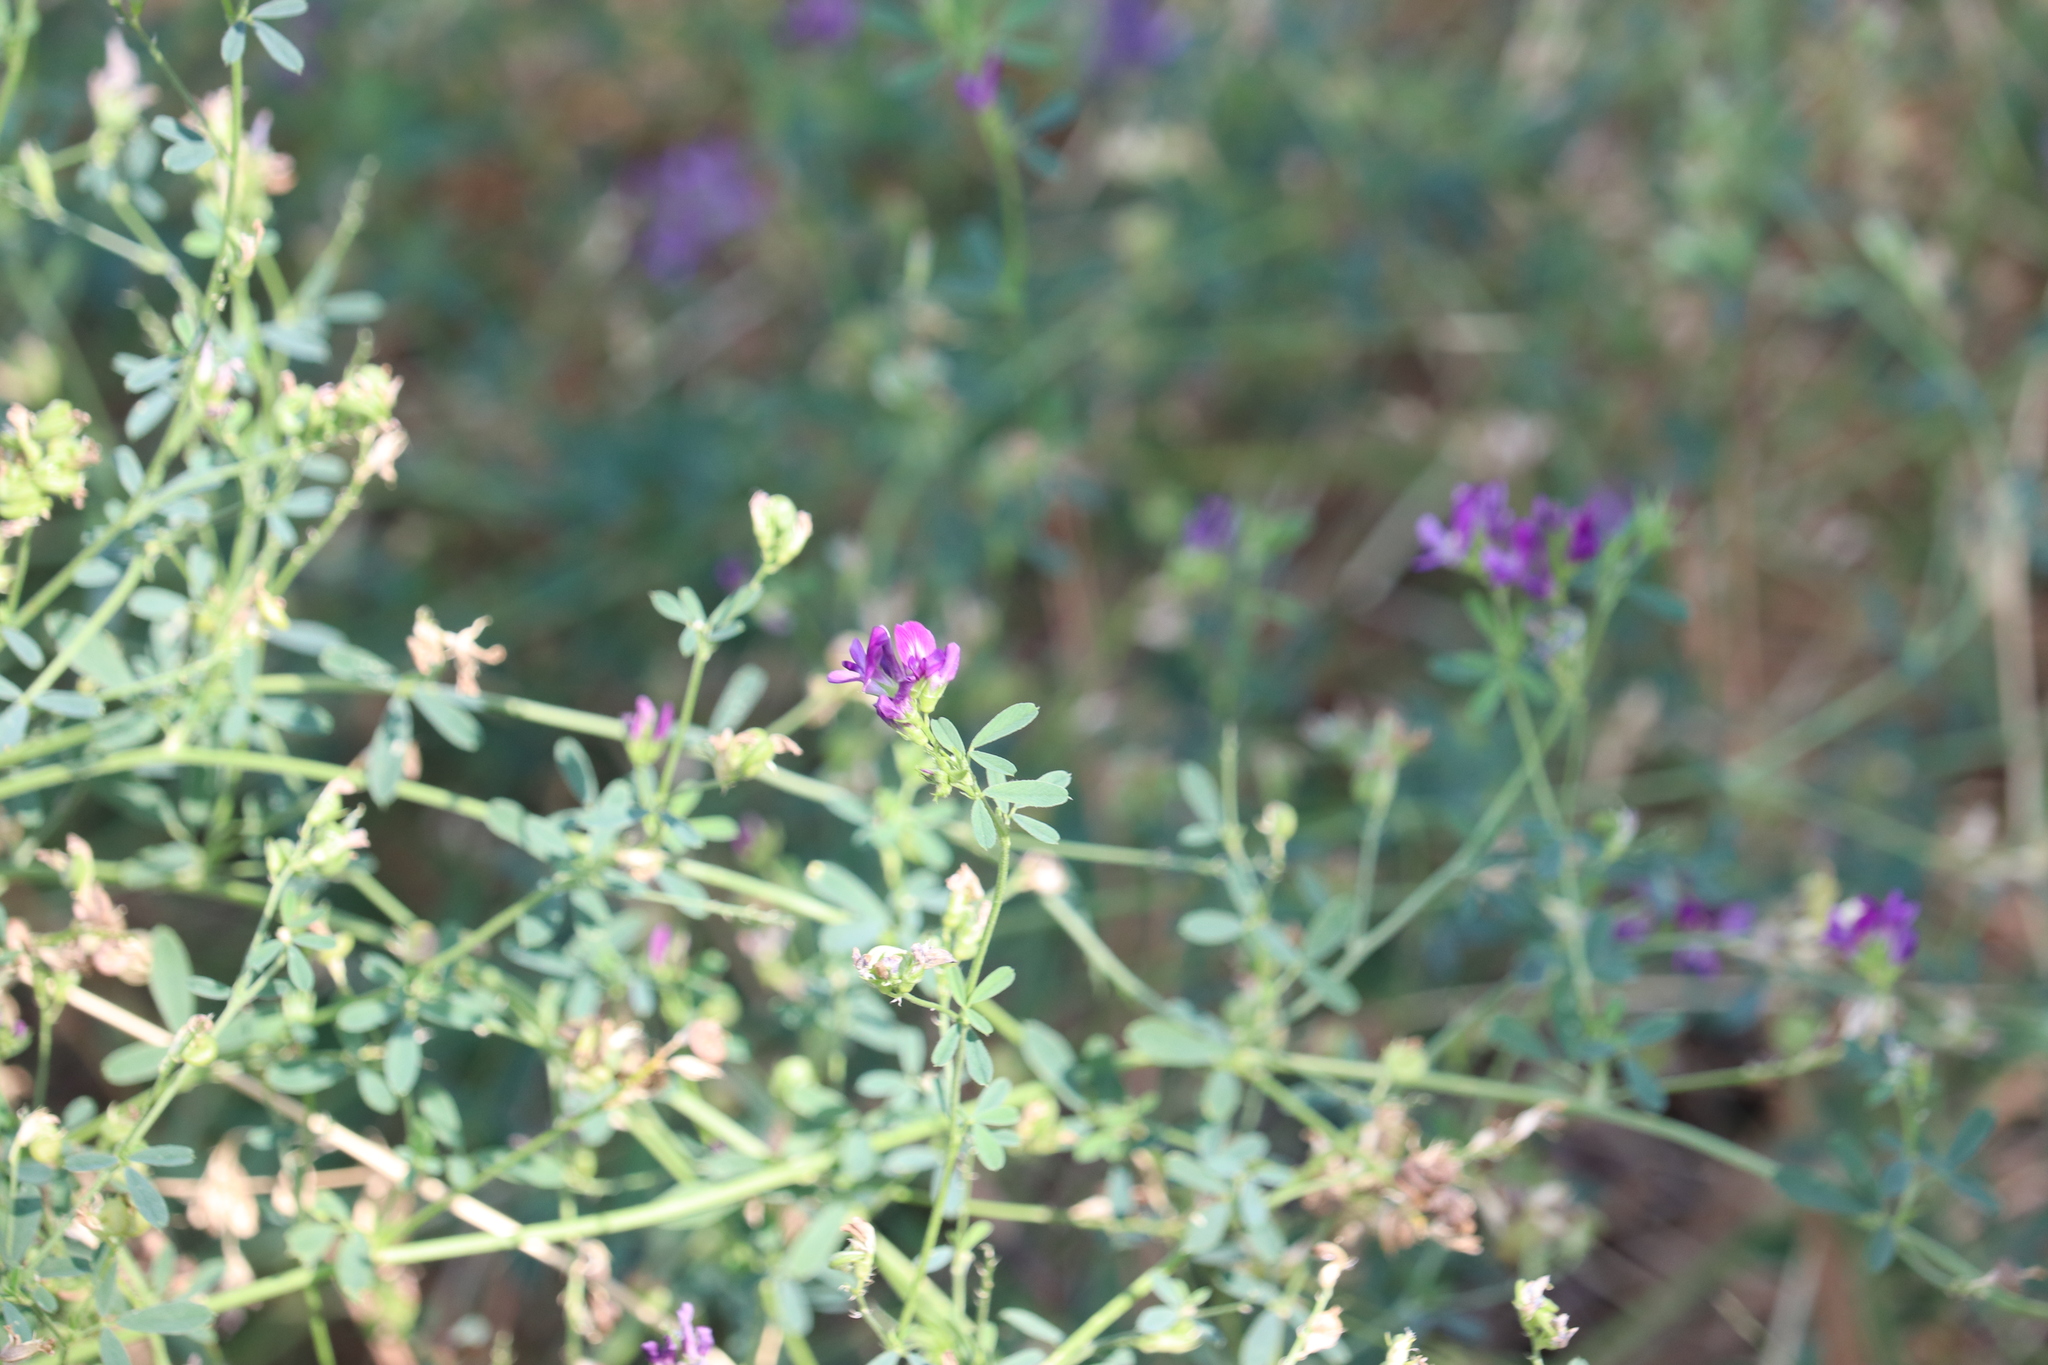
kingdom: Plantae
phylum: Tracheophyta
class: Magnoliopsida
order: Fabales
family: Fabaceae
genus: Medicago
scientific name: Medicago sativa
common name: Alfalfa
